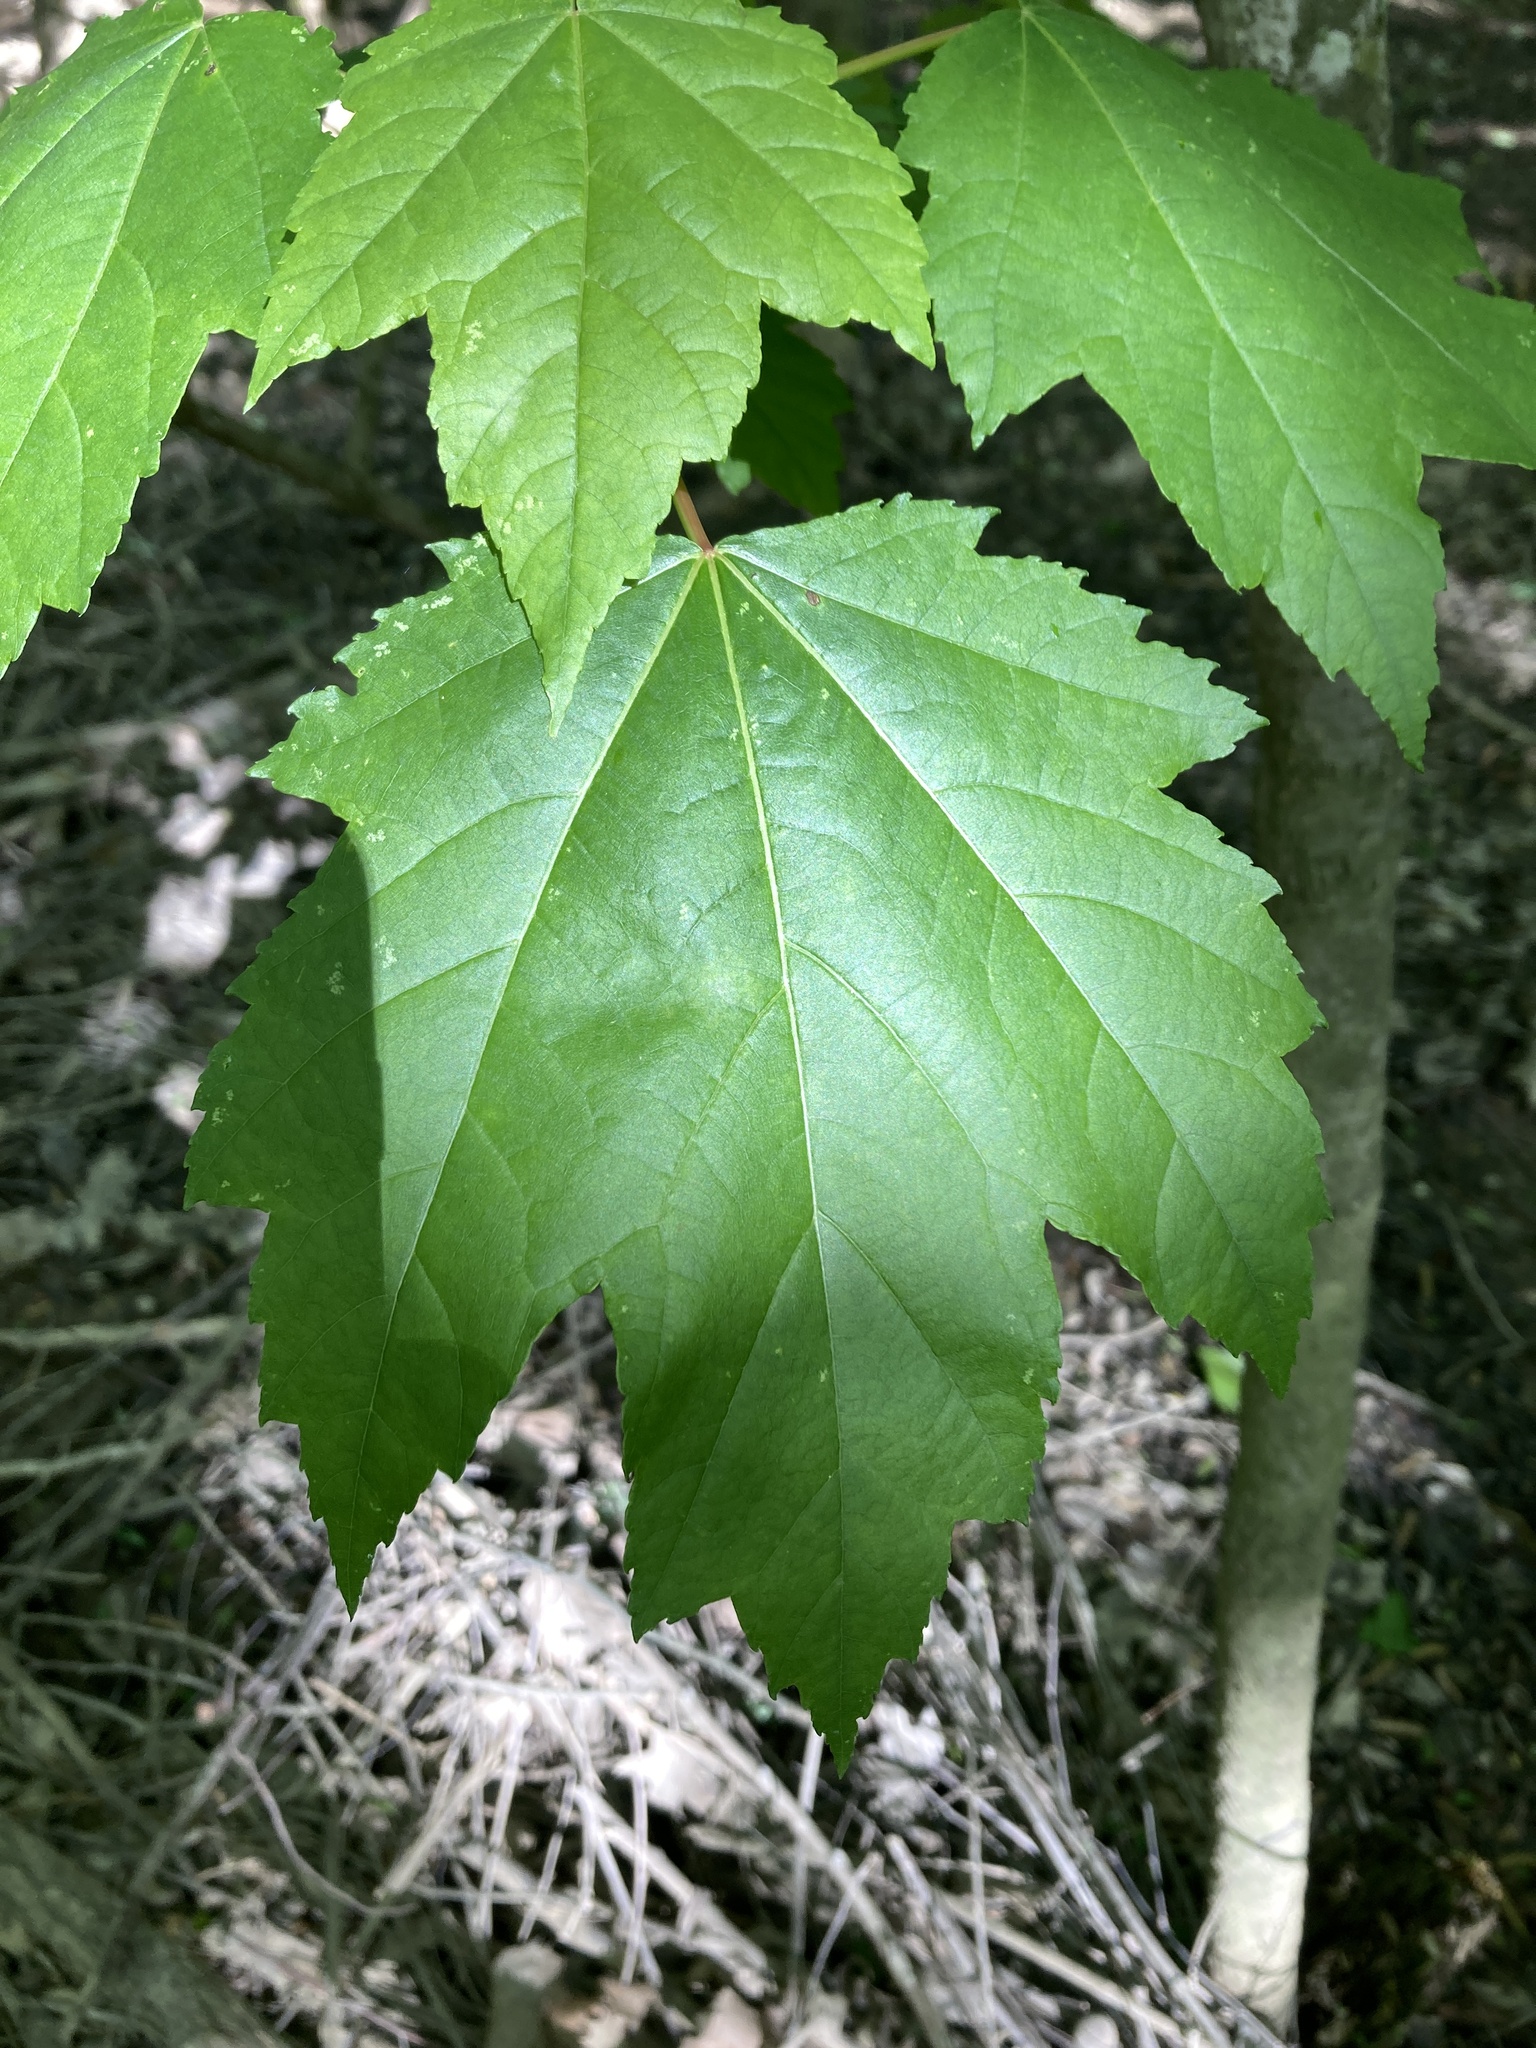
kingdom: Plantae
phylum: Tracheophyta
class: Magnoliopsida
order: Sapindales
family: Sapindaceae
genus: Acer
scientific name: Acer rubrum
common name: Red maple
